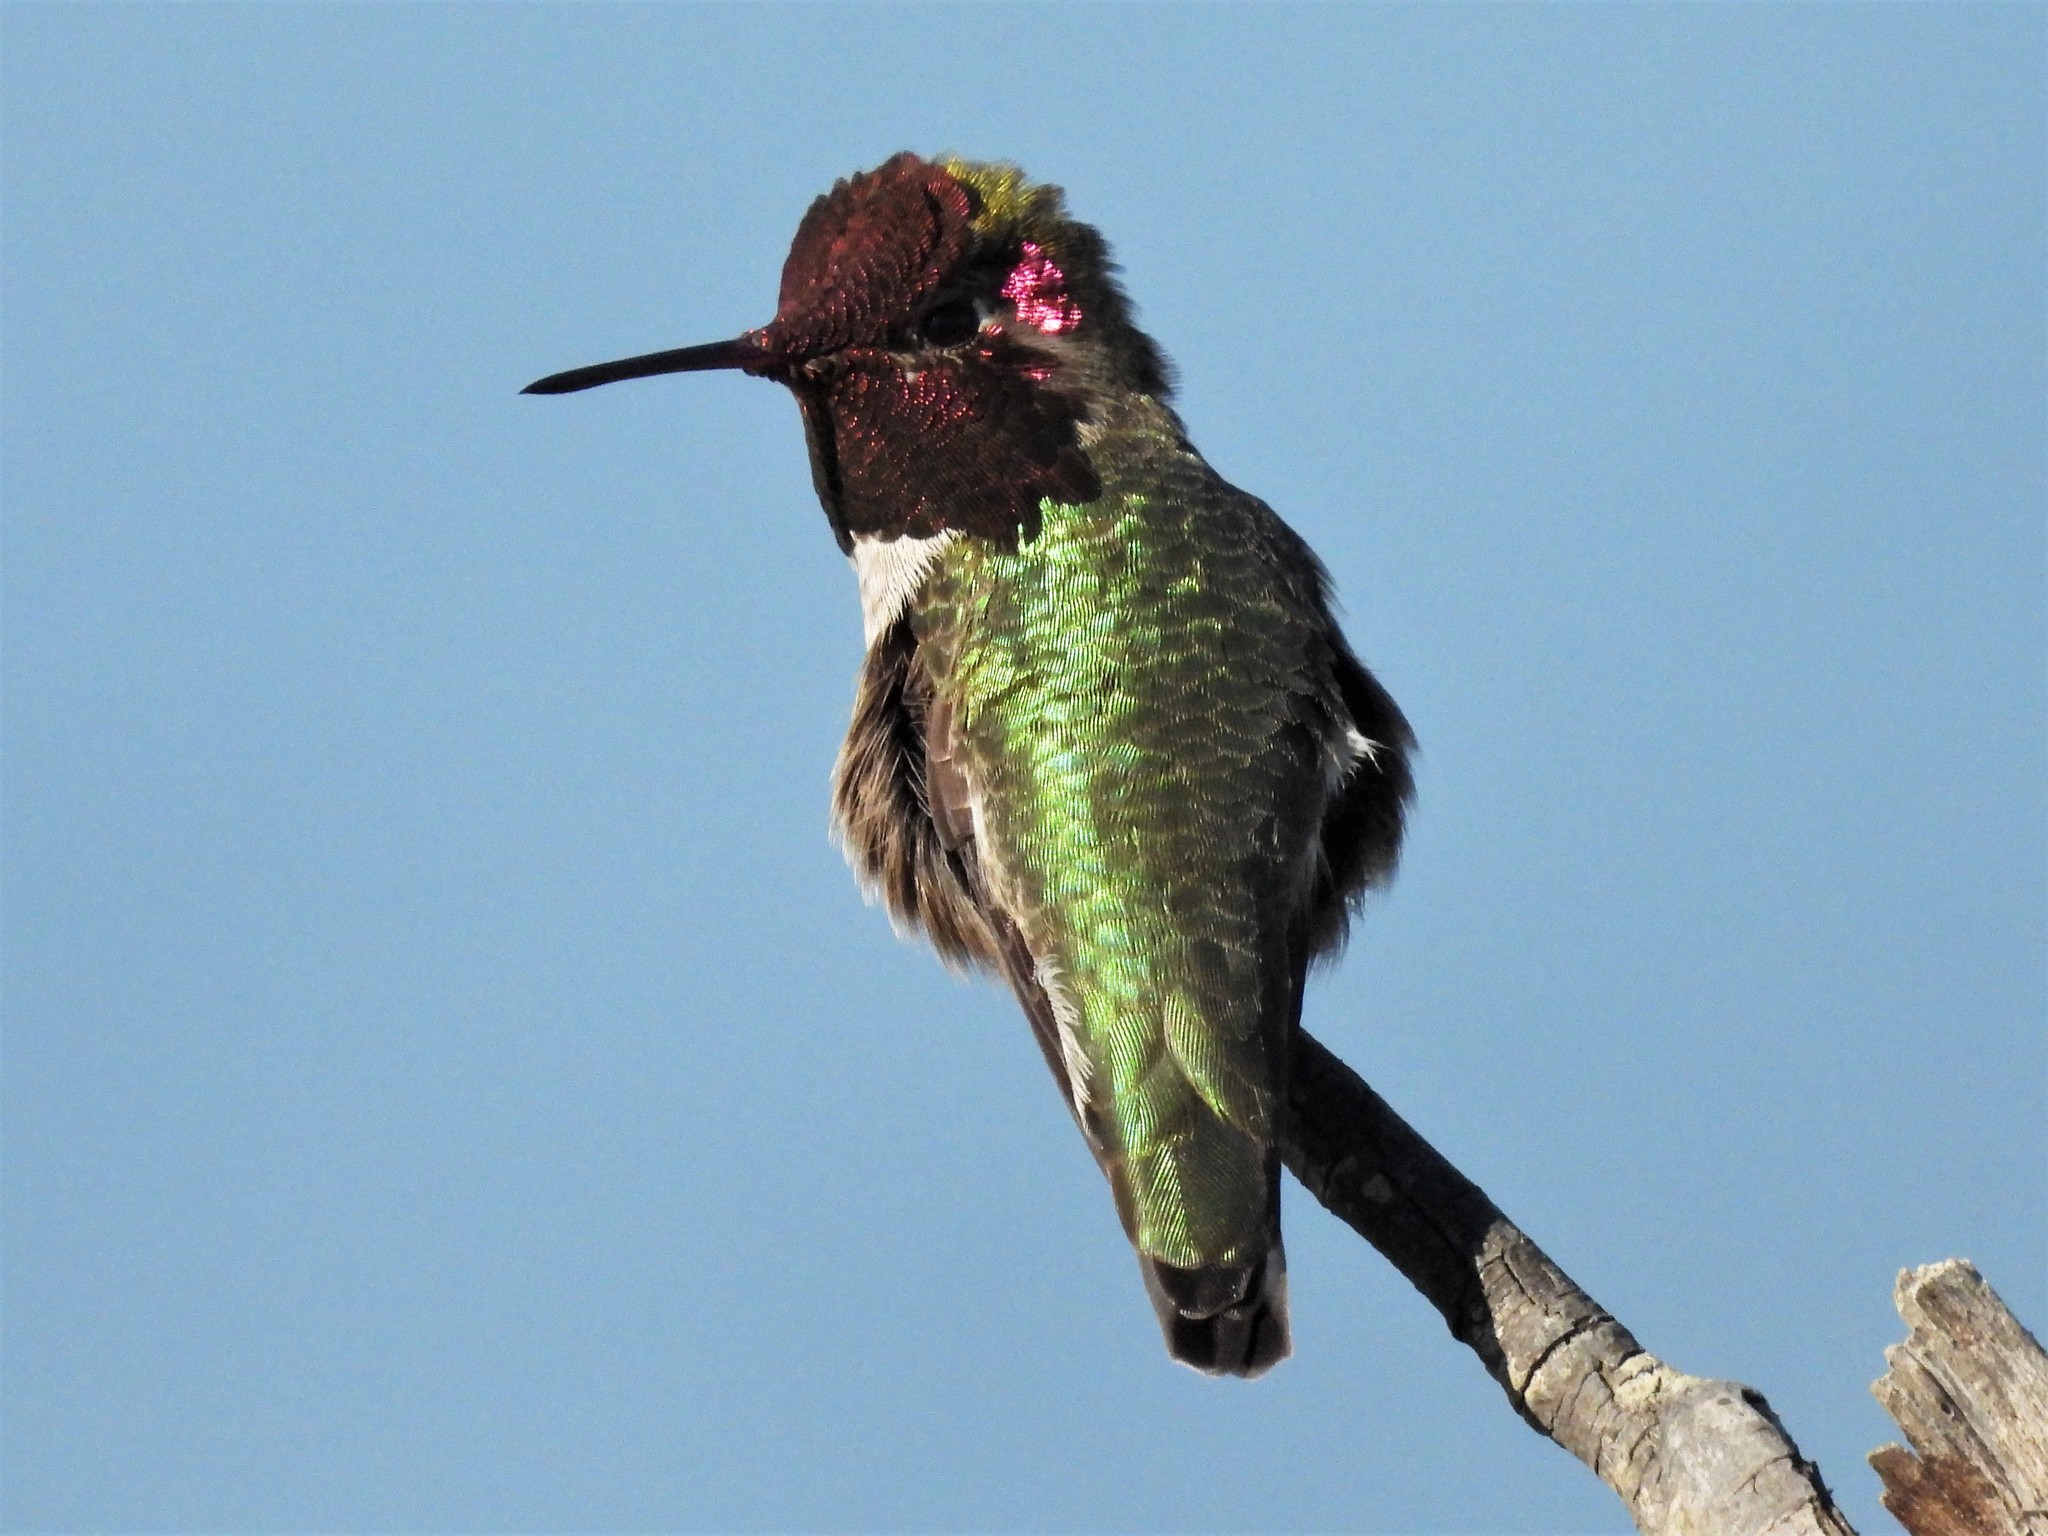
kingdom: Animalia
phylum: Chordata
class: Aves
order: Apodiformes
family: Trochilidae
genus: Calypte
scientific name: Calypte anna
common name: Anna's hummingbird
